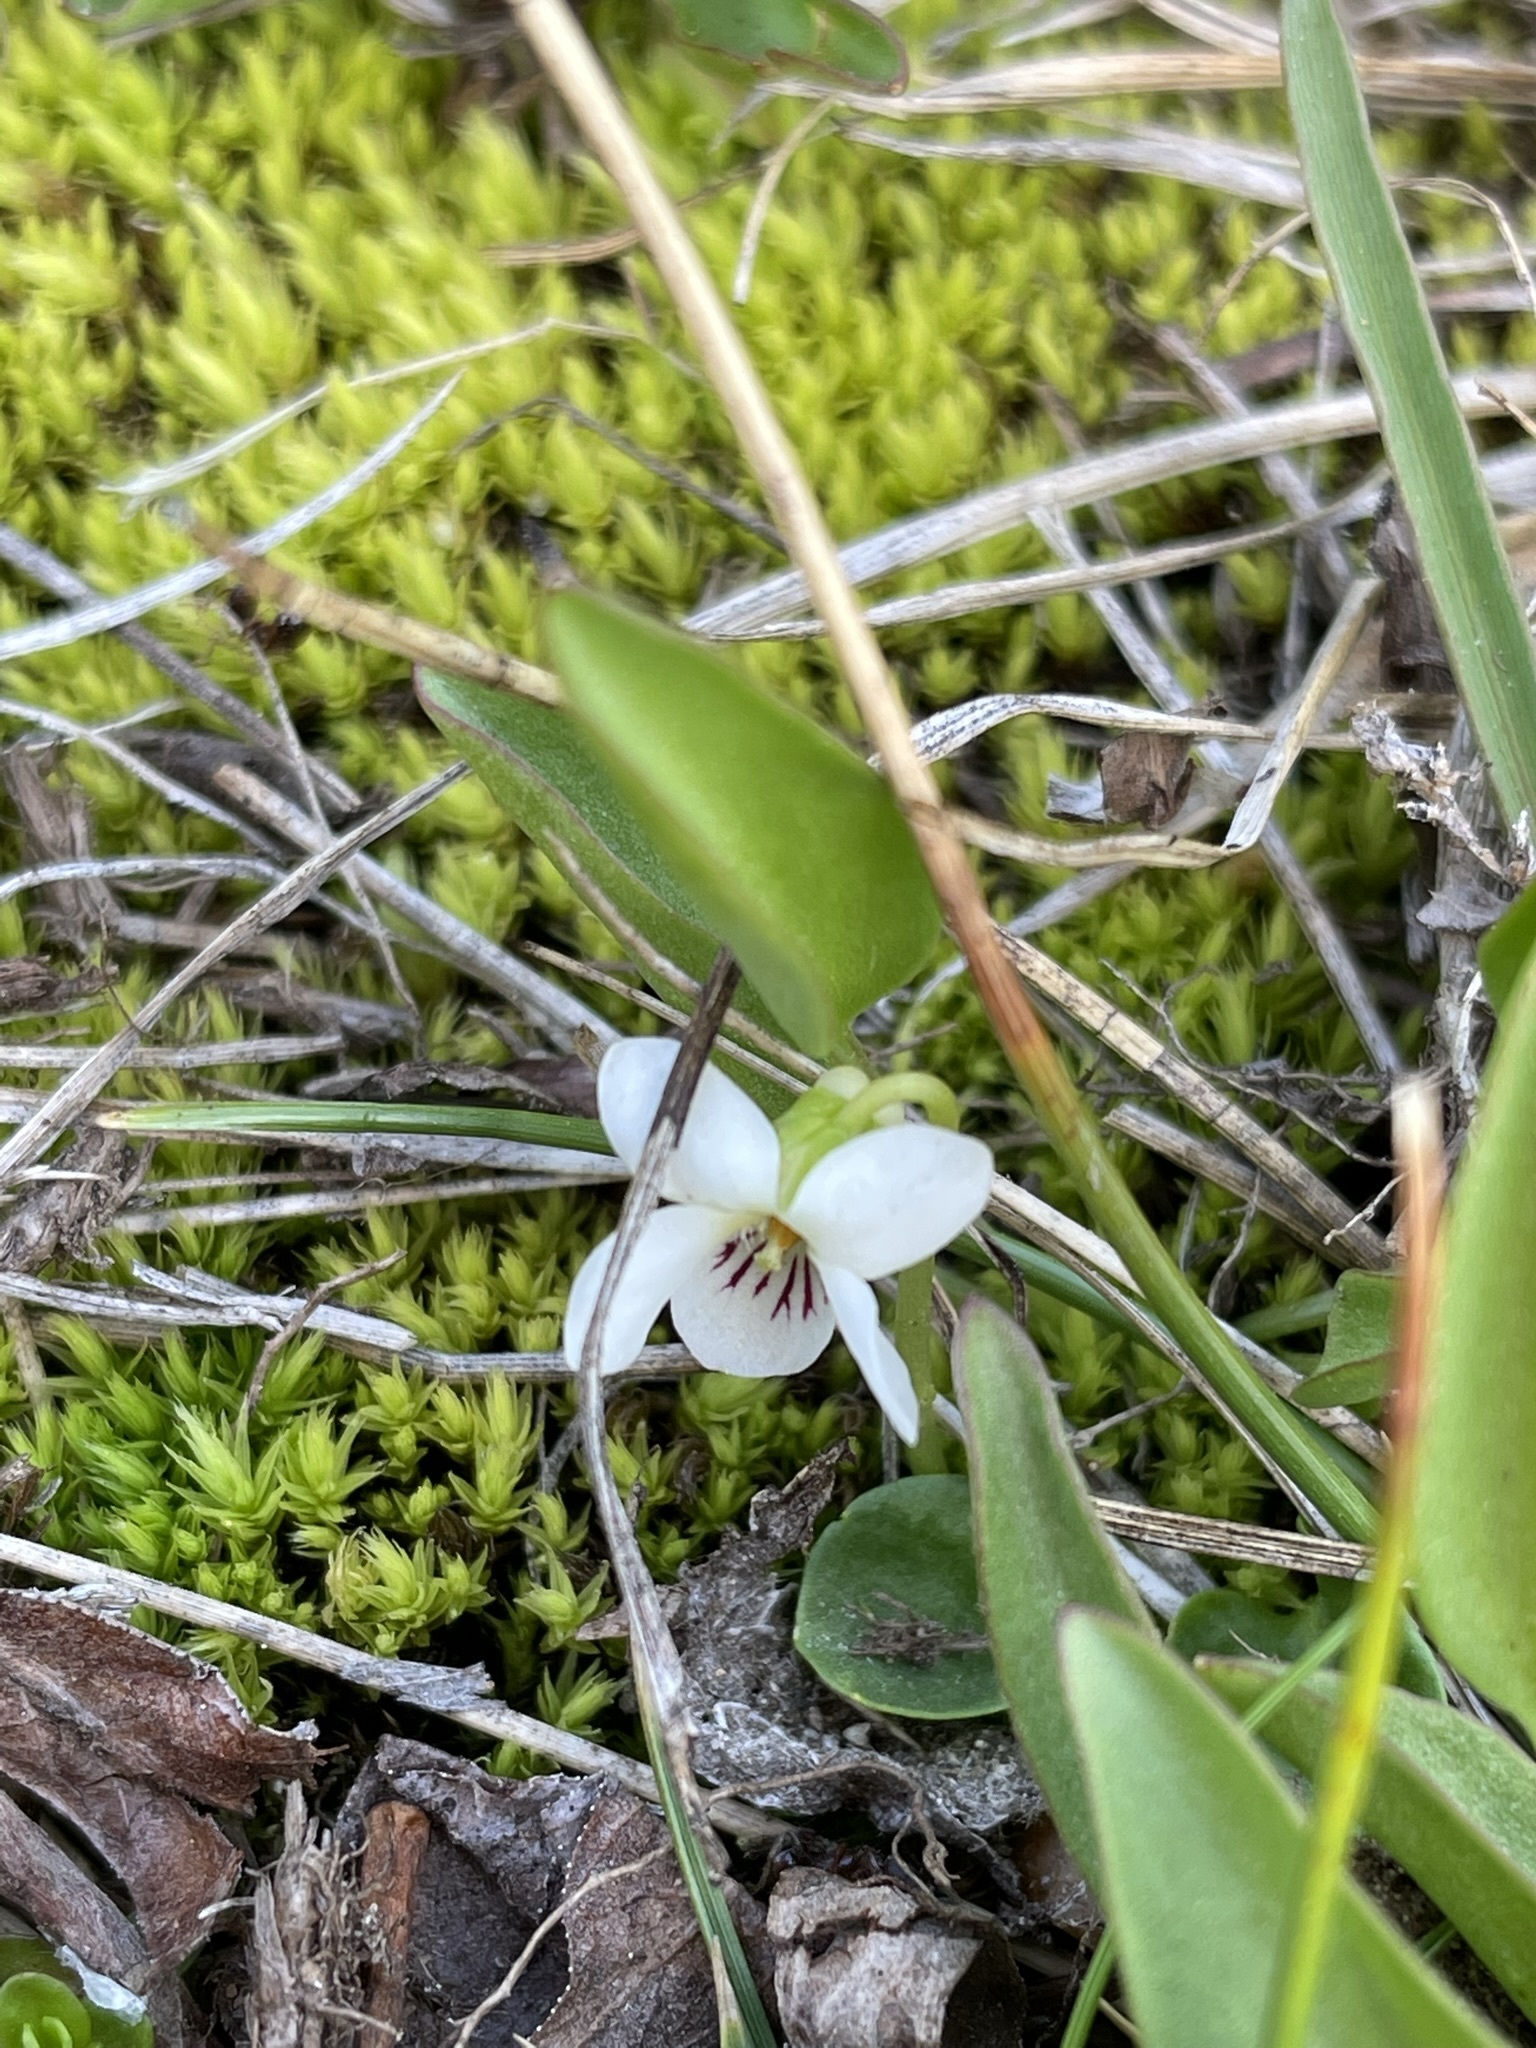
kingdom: Plantae
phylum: Tracheophyta
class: Magnoliopsida
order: Malpighiales
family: Violaceae
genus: Viola
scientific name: Viola macloskeyi
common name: Macloskey's violet
